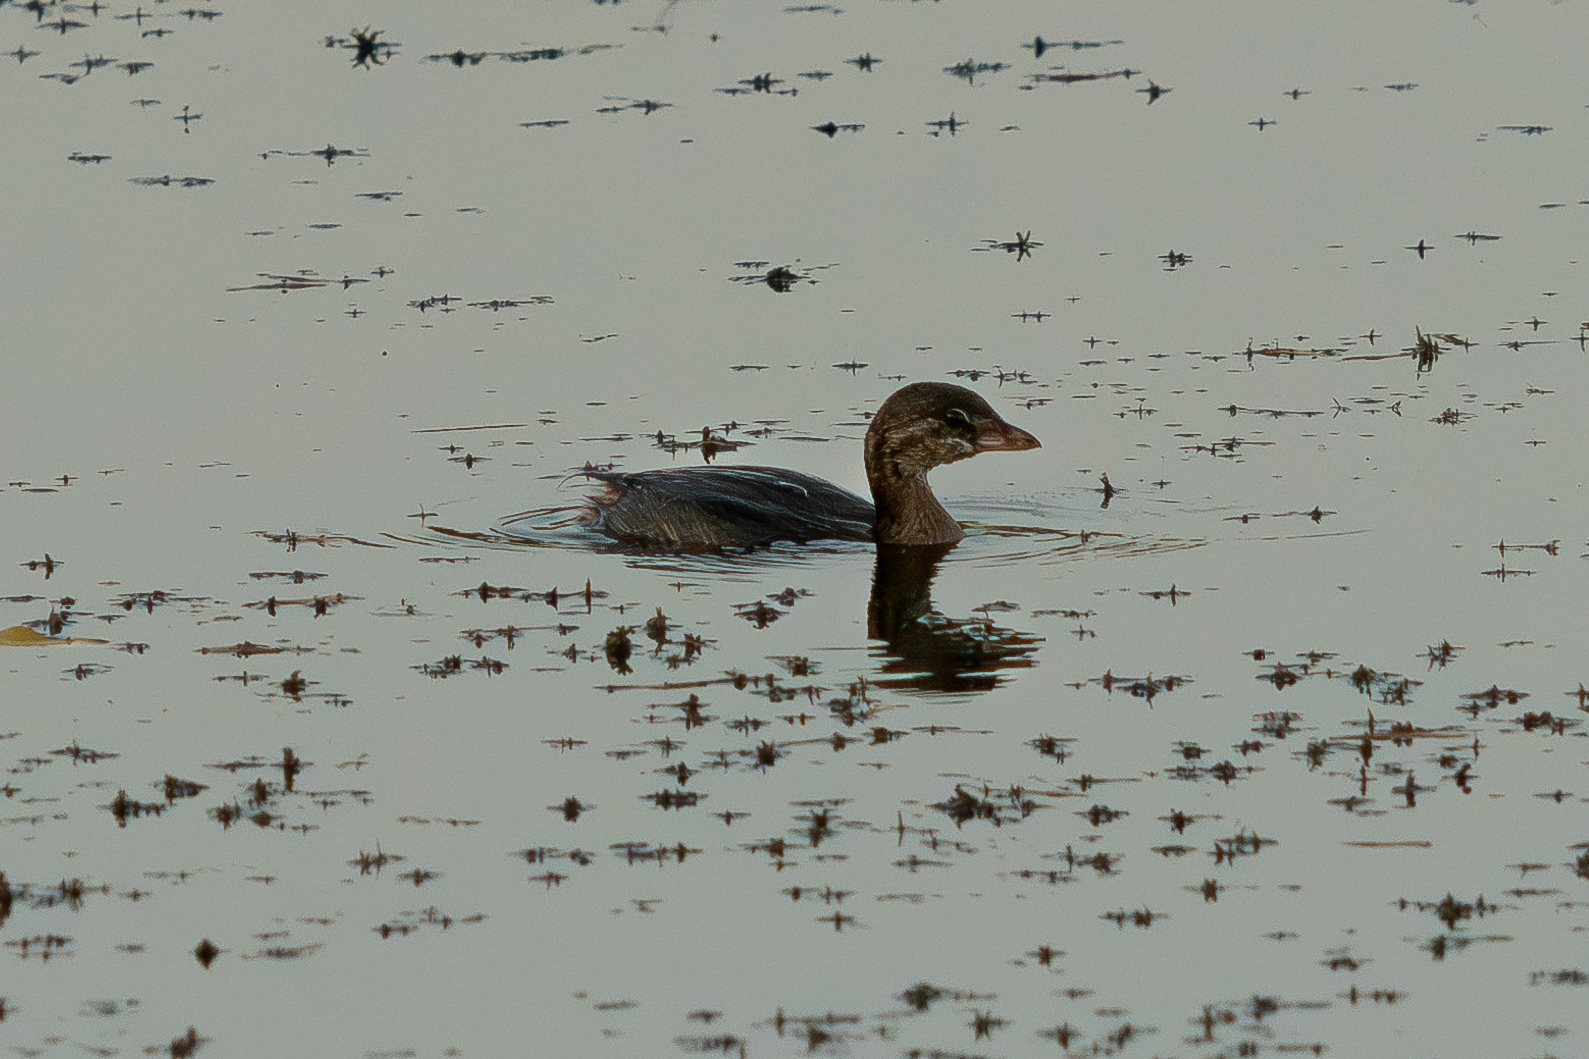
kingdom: Animalia
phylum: Chordata
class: Aves
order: Podicipediformes
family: Podicipedidae
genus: Podilymbus
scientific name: Podilymbus podiceps
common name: Pied-billed grebe
